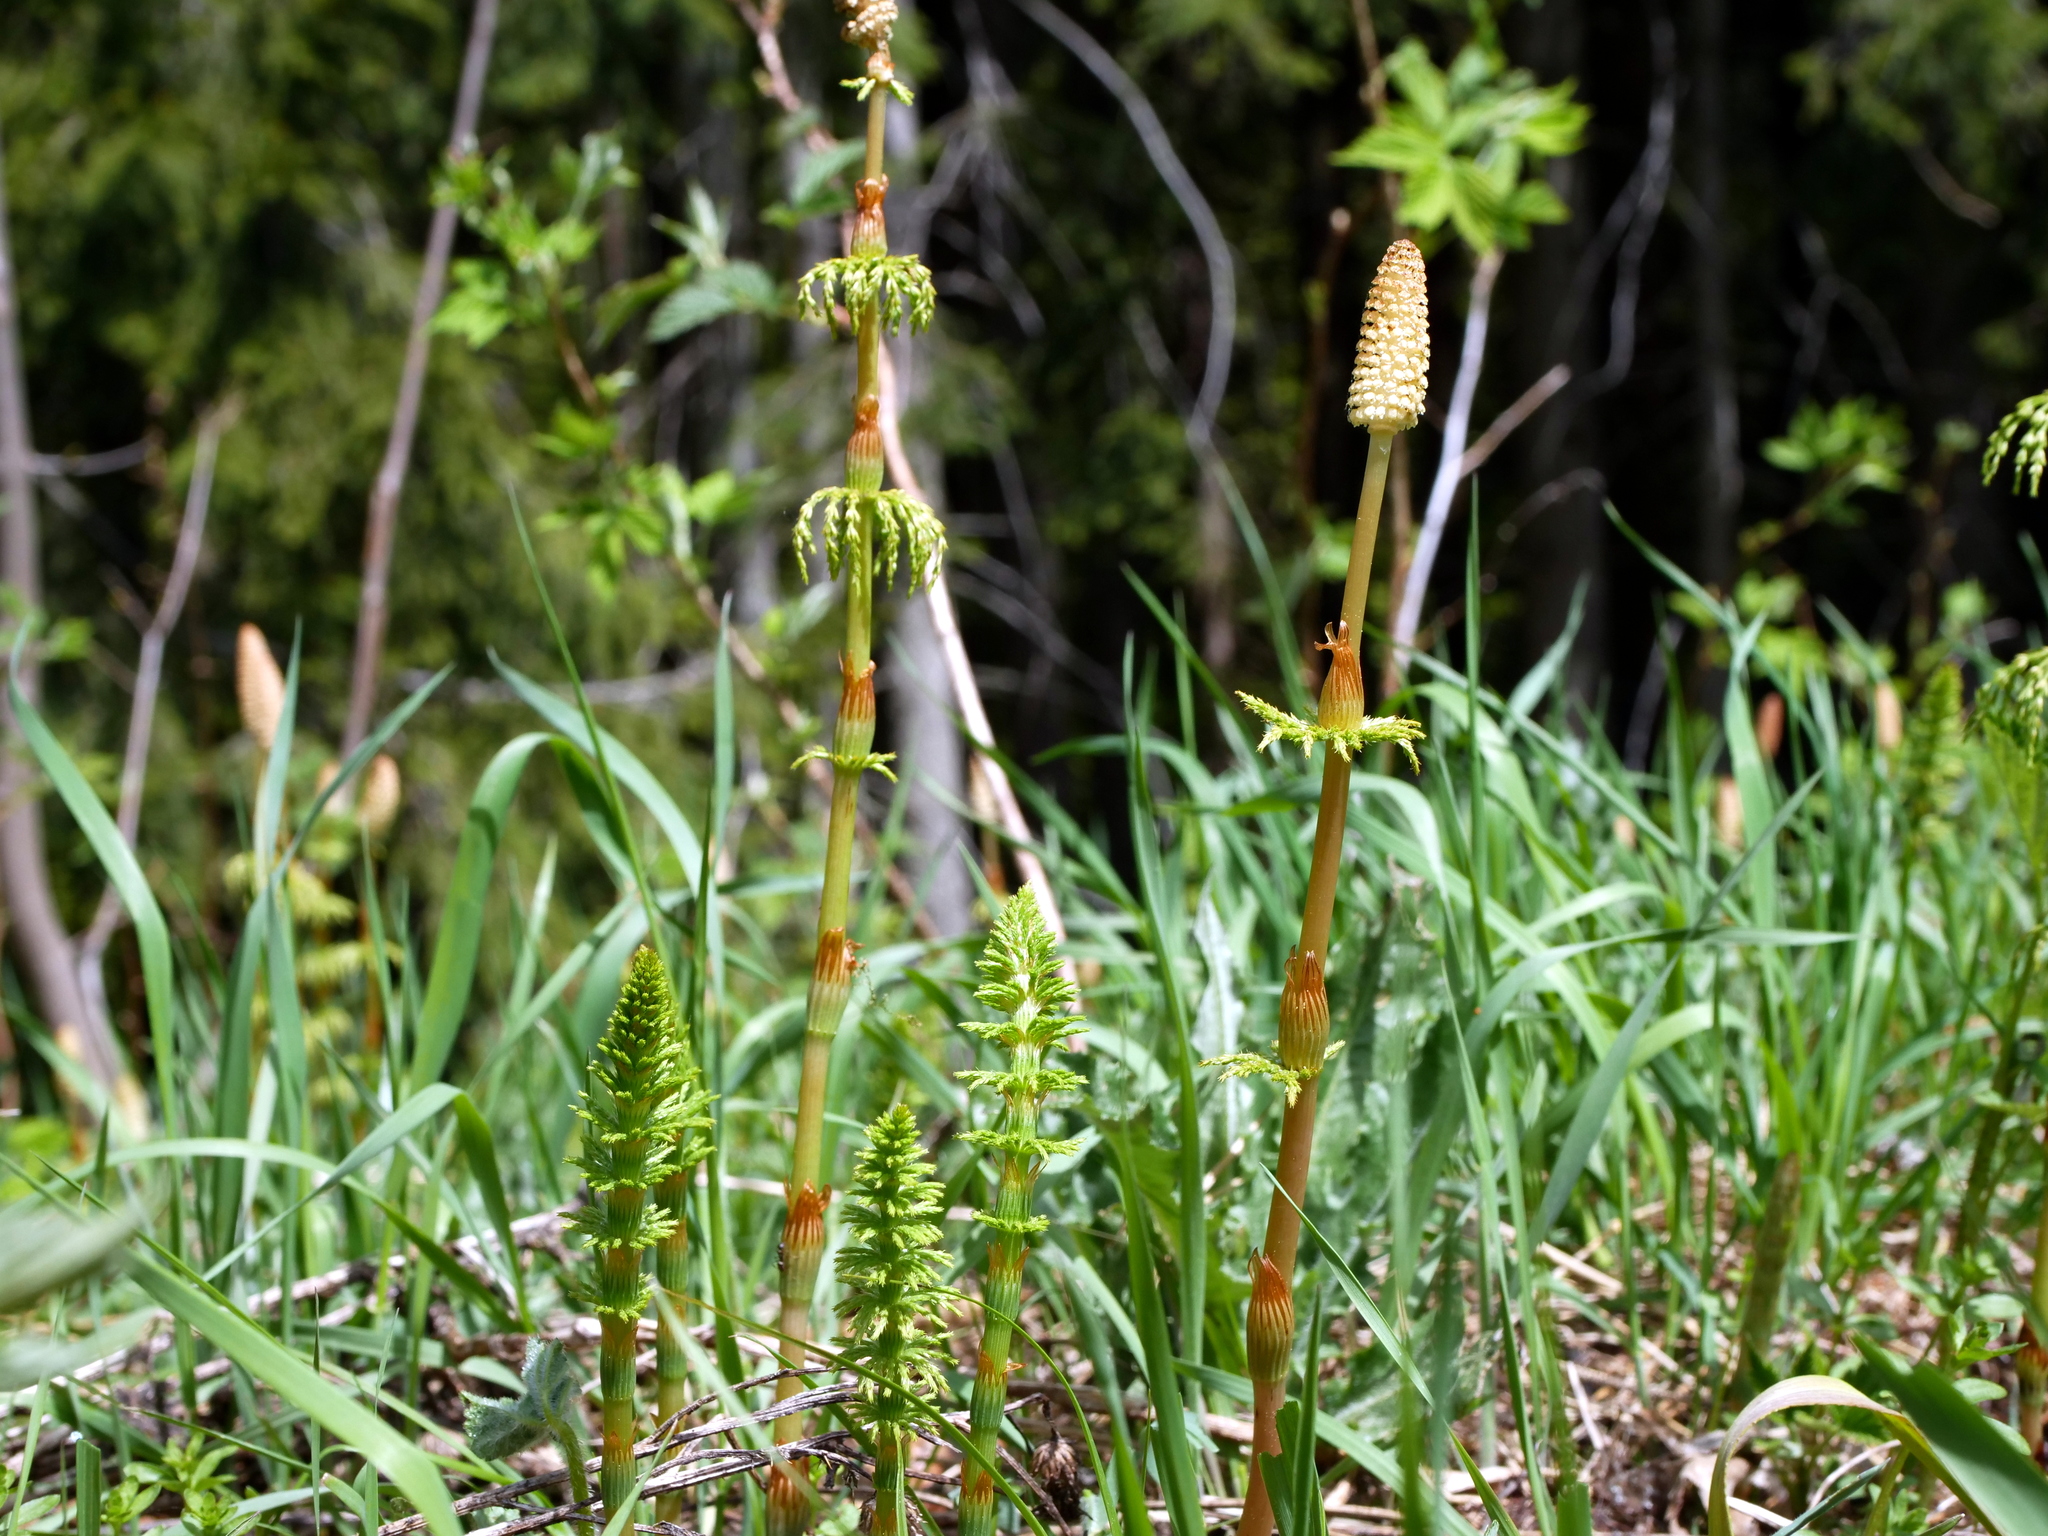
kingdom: Plantae
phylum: Tracheophyta
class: Polypodiopsida
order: Equisetales
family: Equisetaceae
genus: Equisetum
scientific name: Equisetum sylvaticum
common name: Wood horsetail
